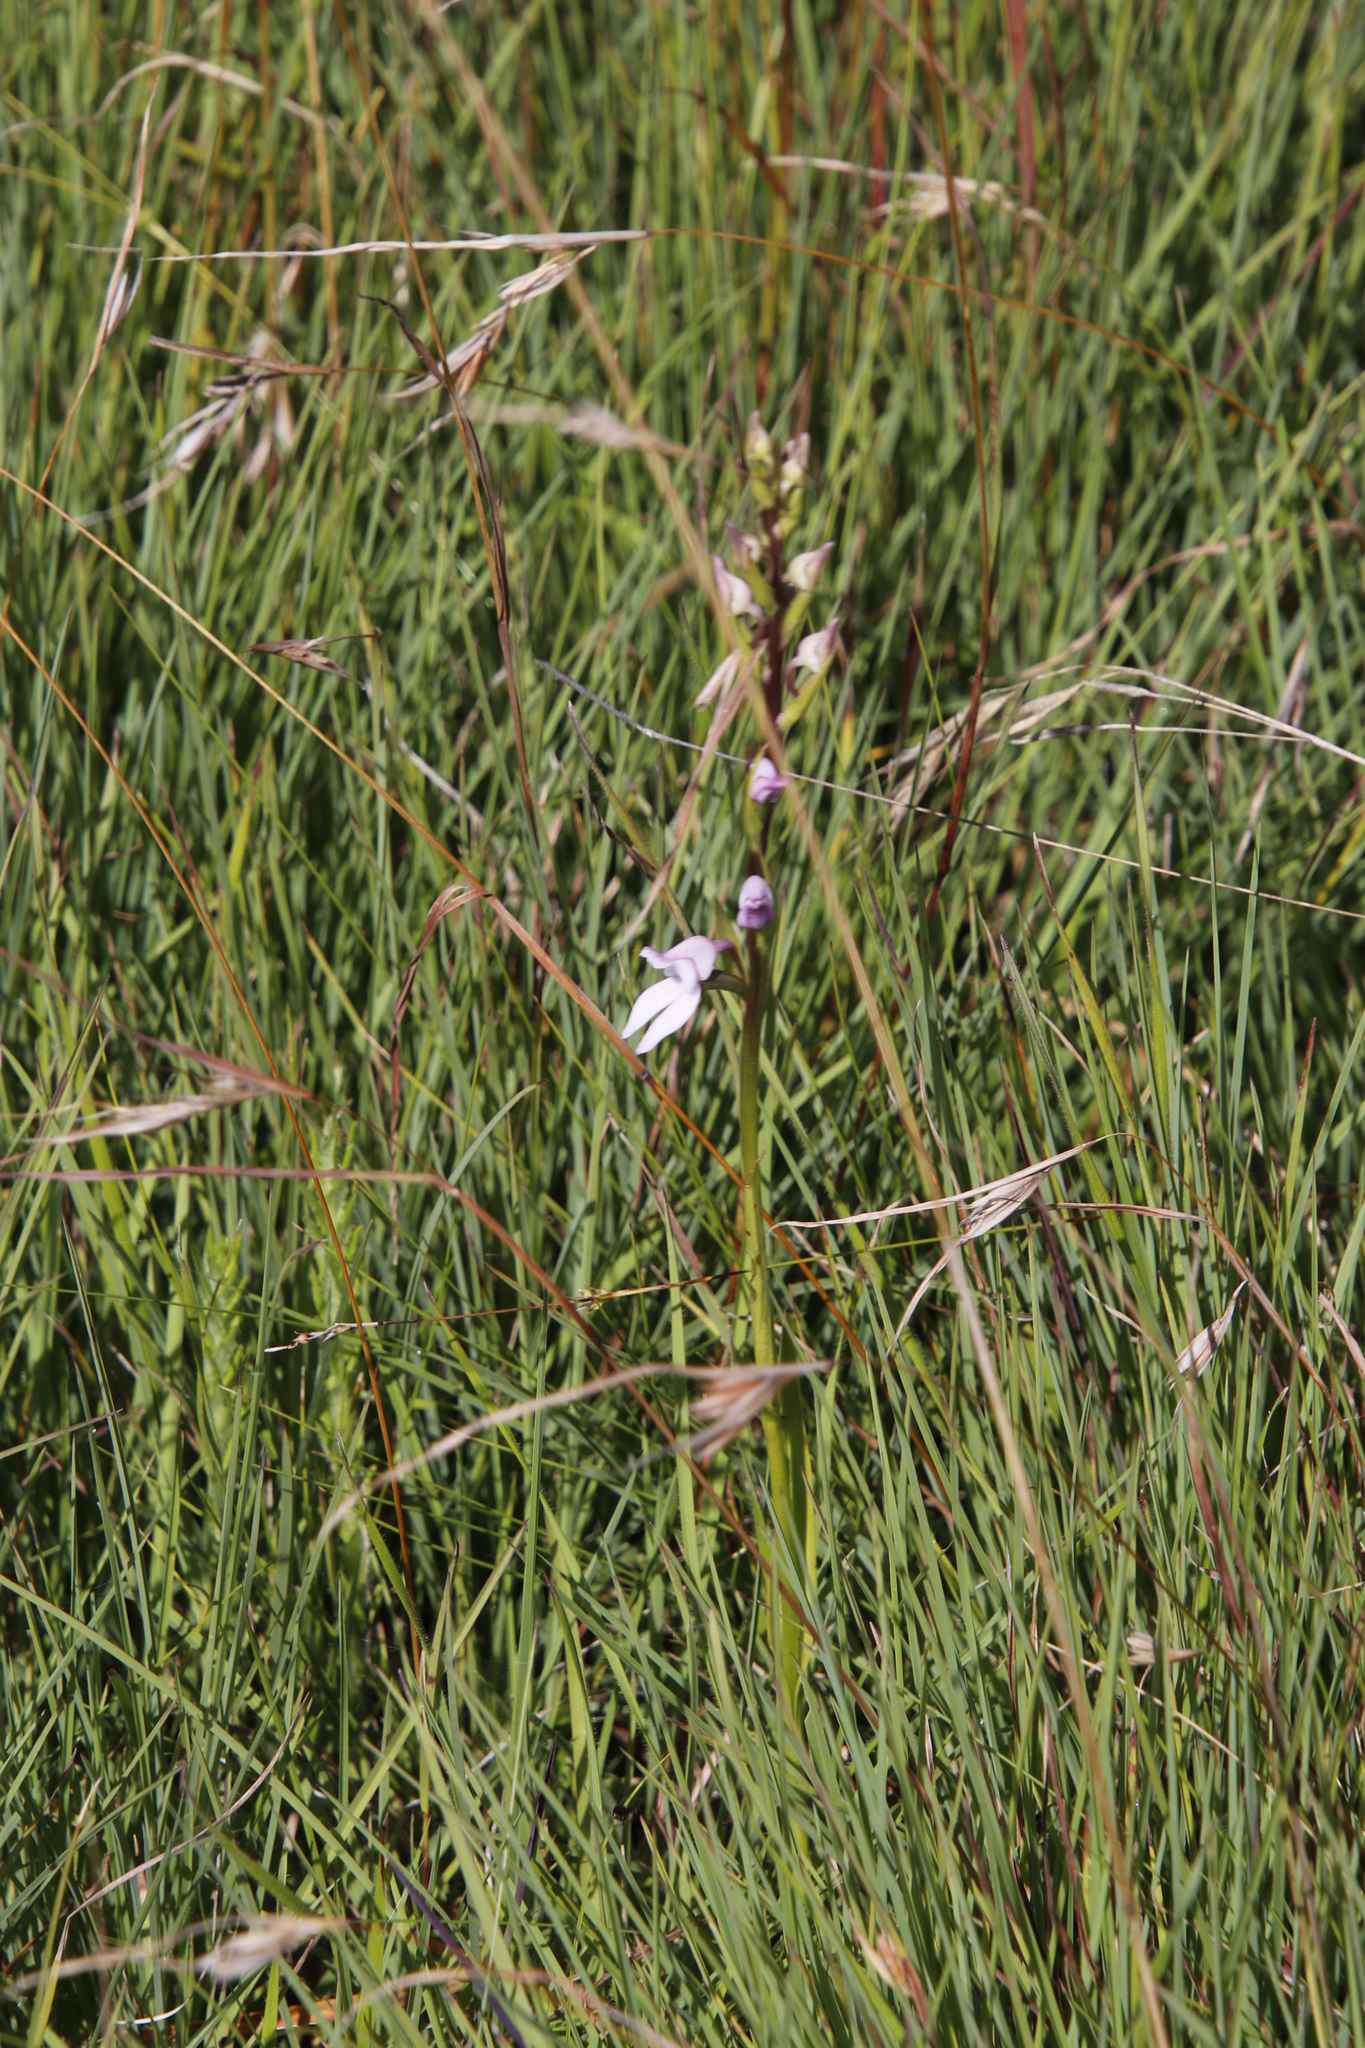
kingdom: Plantae
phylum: Tracheophyta
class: Liliopsida
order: Asparagales
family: Orchidaceae
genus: Brownleea
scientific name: Brownleea recurvata
